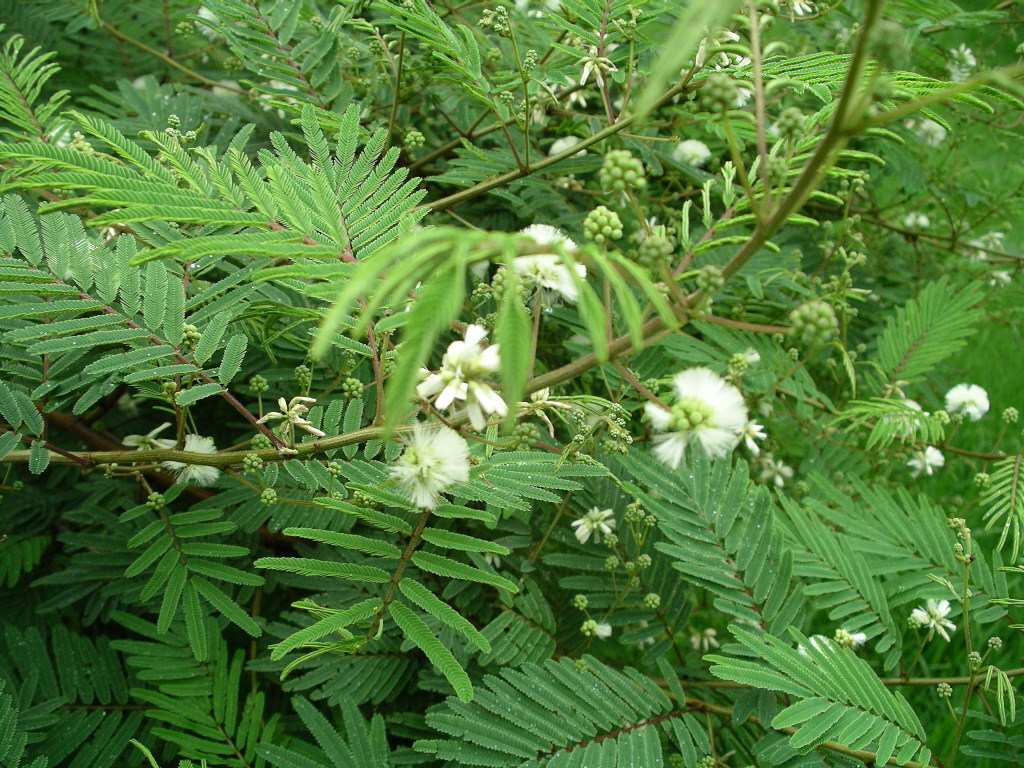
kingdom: Plantae
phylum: Tracheophyta
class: Magnoliopsida
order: Fabales
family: Fabaceae
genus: Acaciella
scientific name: Acaciella angustissima
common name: Prairie acacia
